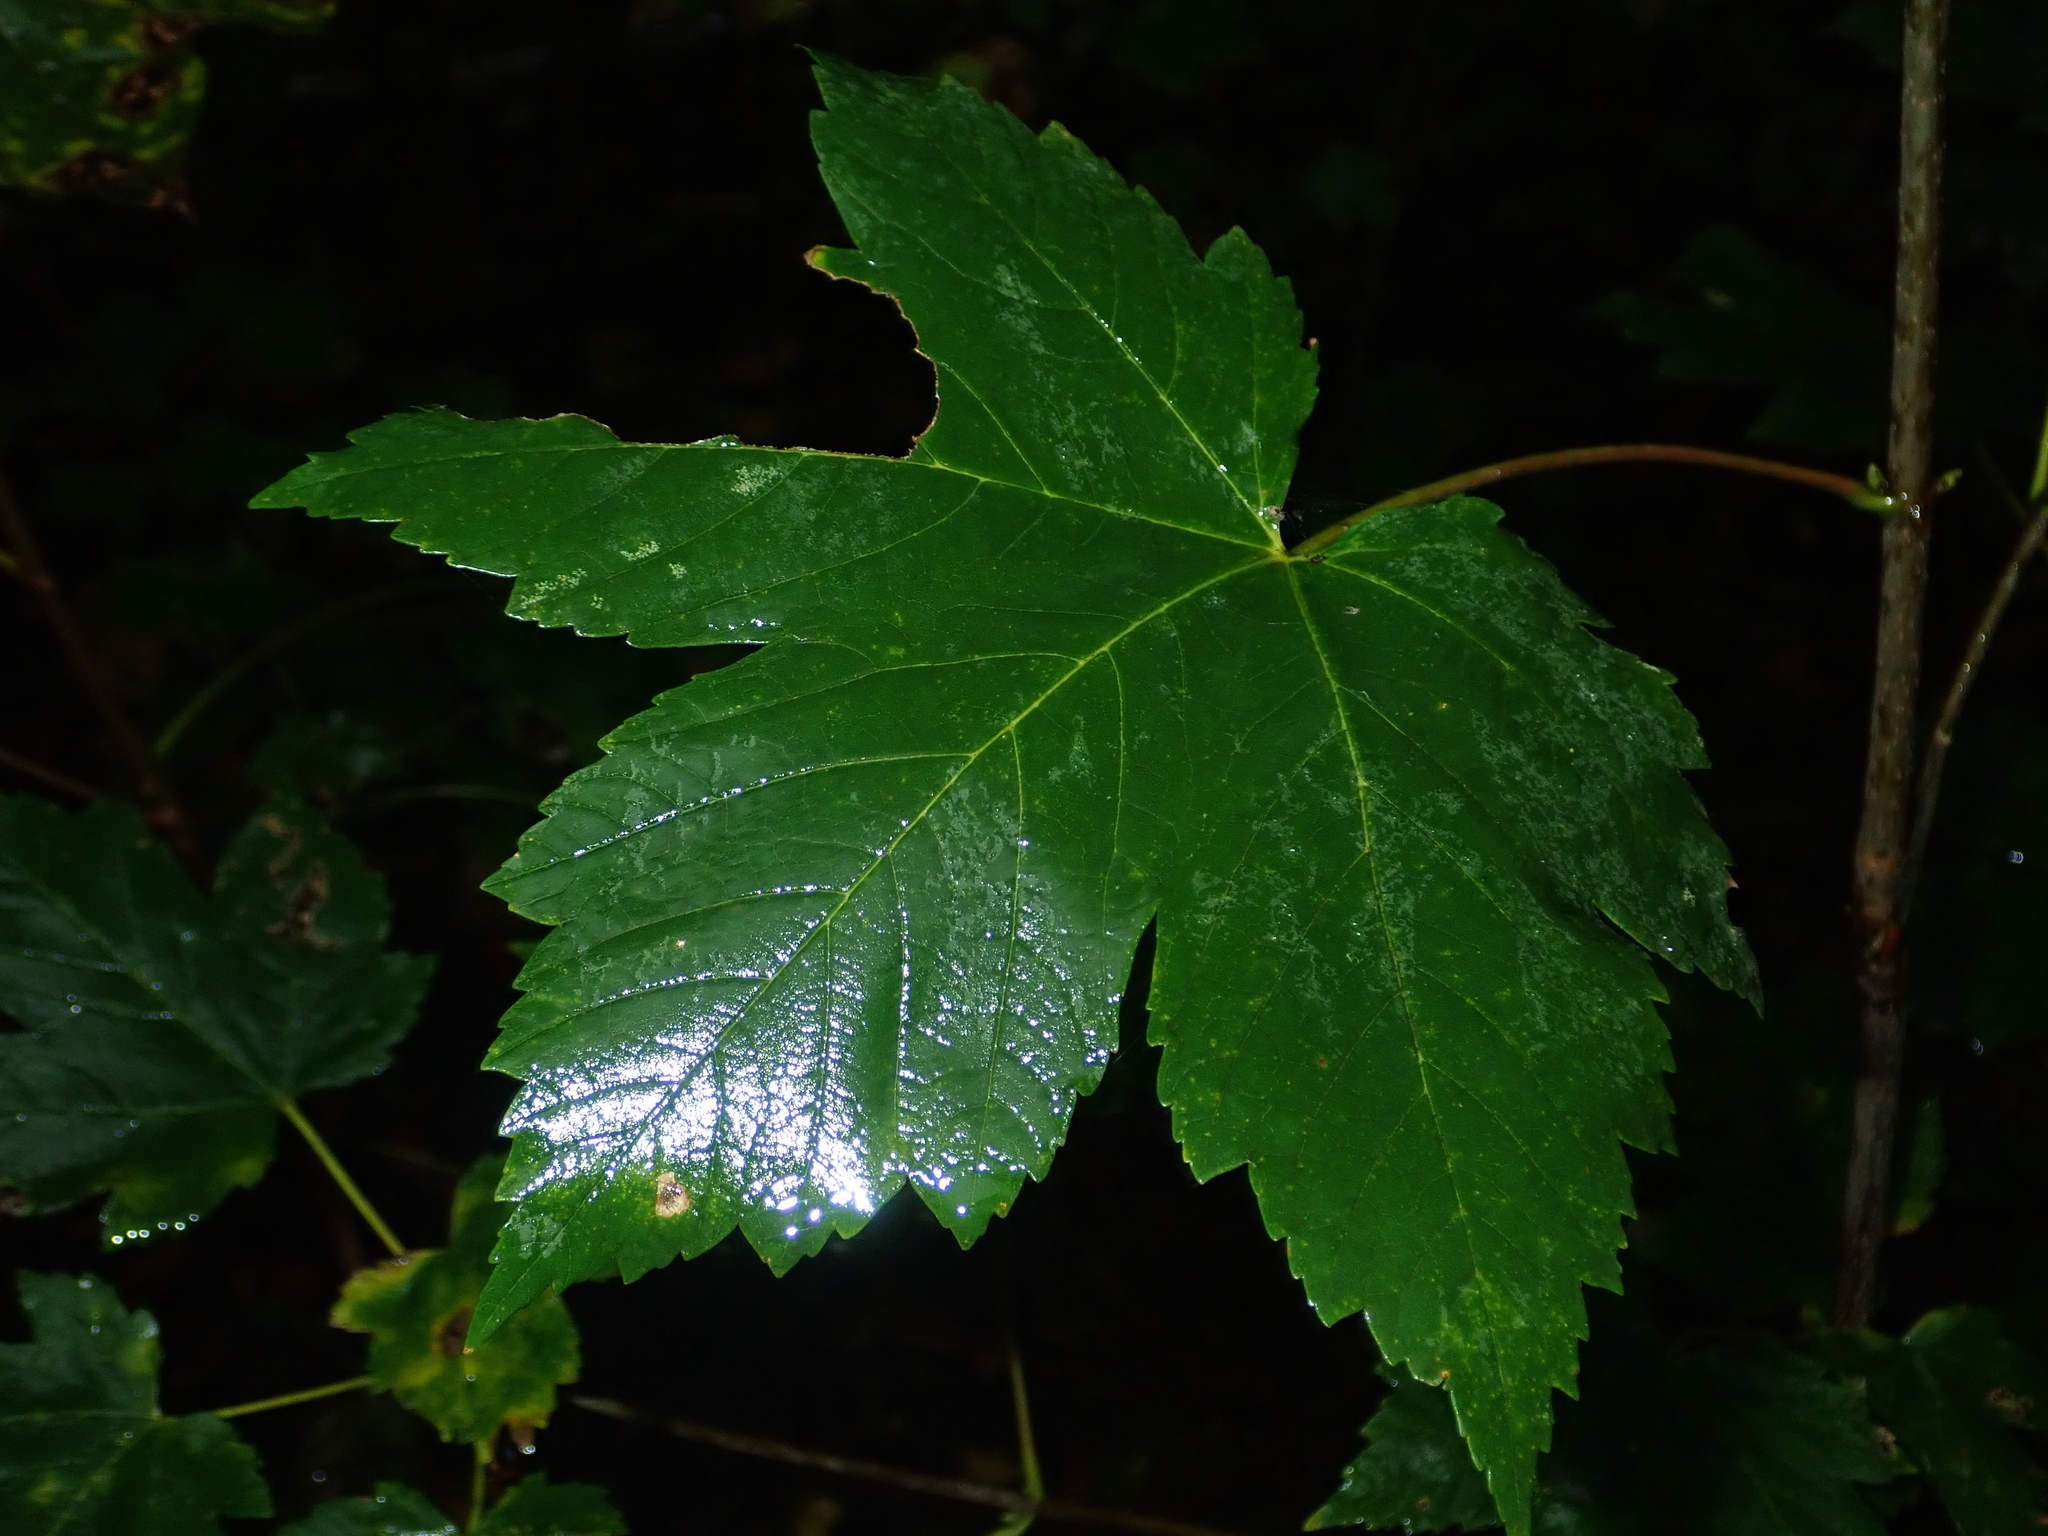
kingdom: Plantae
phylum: Tracheophyta
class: Magnoliopsida
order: Sapindales
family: Sapindaceae
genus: Acer
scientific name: Acer pseudoplatanus
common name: Sycamore
